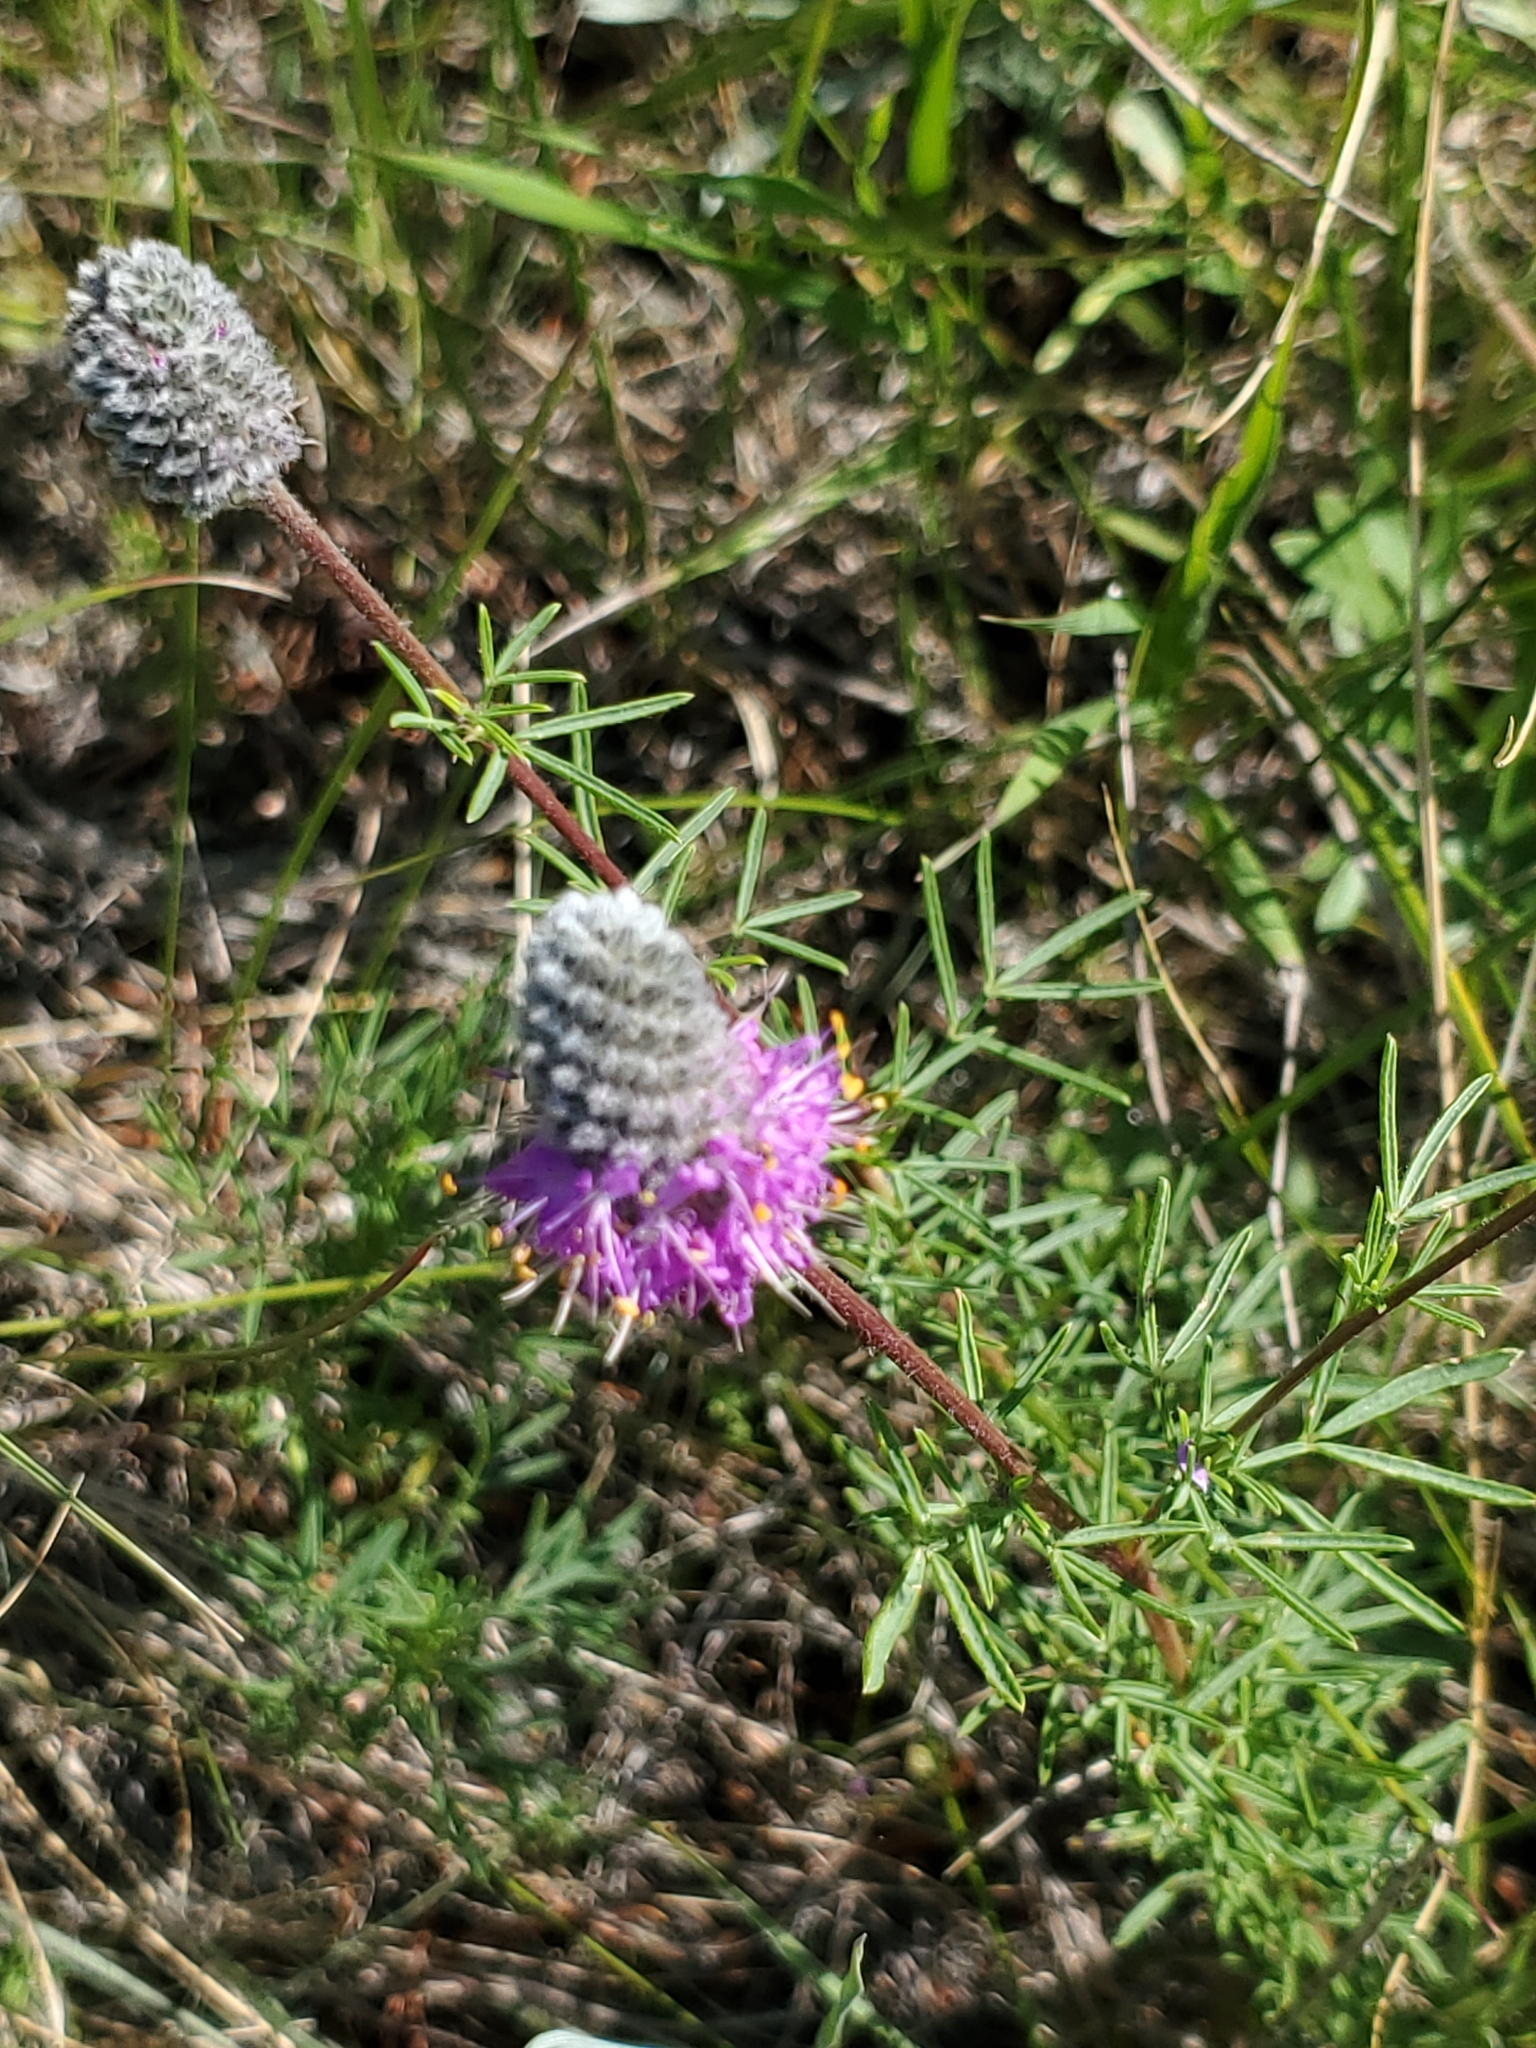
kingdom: Plantae
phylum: Tracheophyta
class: Magnoliopsida
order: Fabales
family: Fabaceae
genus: Dalea
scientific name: Dalea purpurea
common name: Purple prairie-clover
